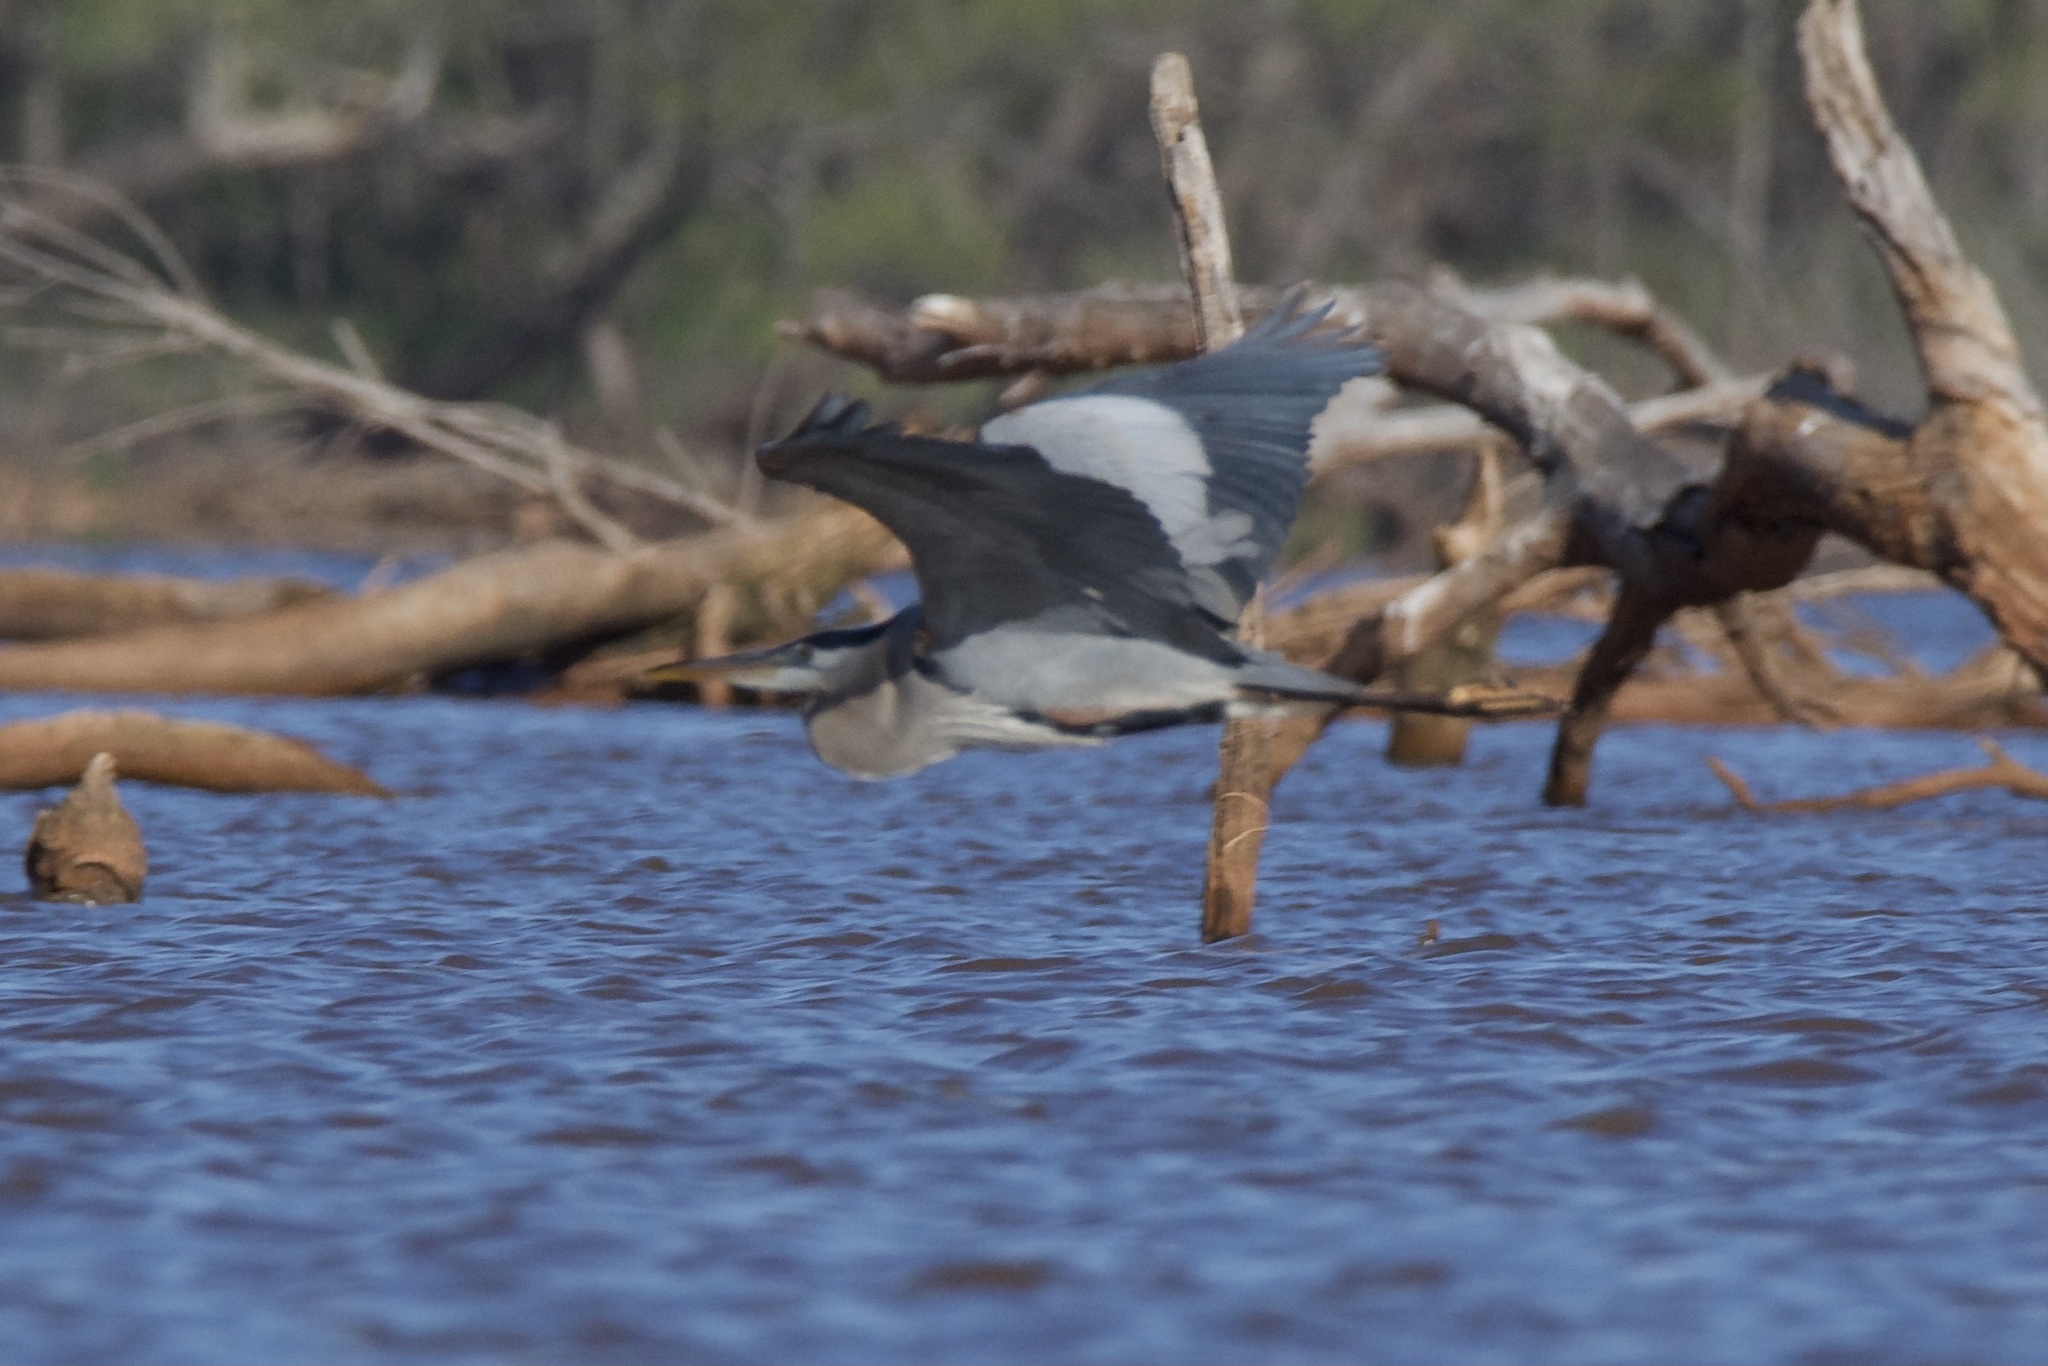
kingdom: Animalia
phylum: Chordata
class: Aves
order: Pelecaniformes
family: Ardeidae
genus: Ardea
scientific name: Ardea herodias
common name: Great blue heron
